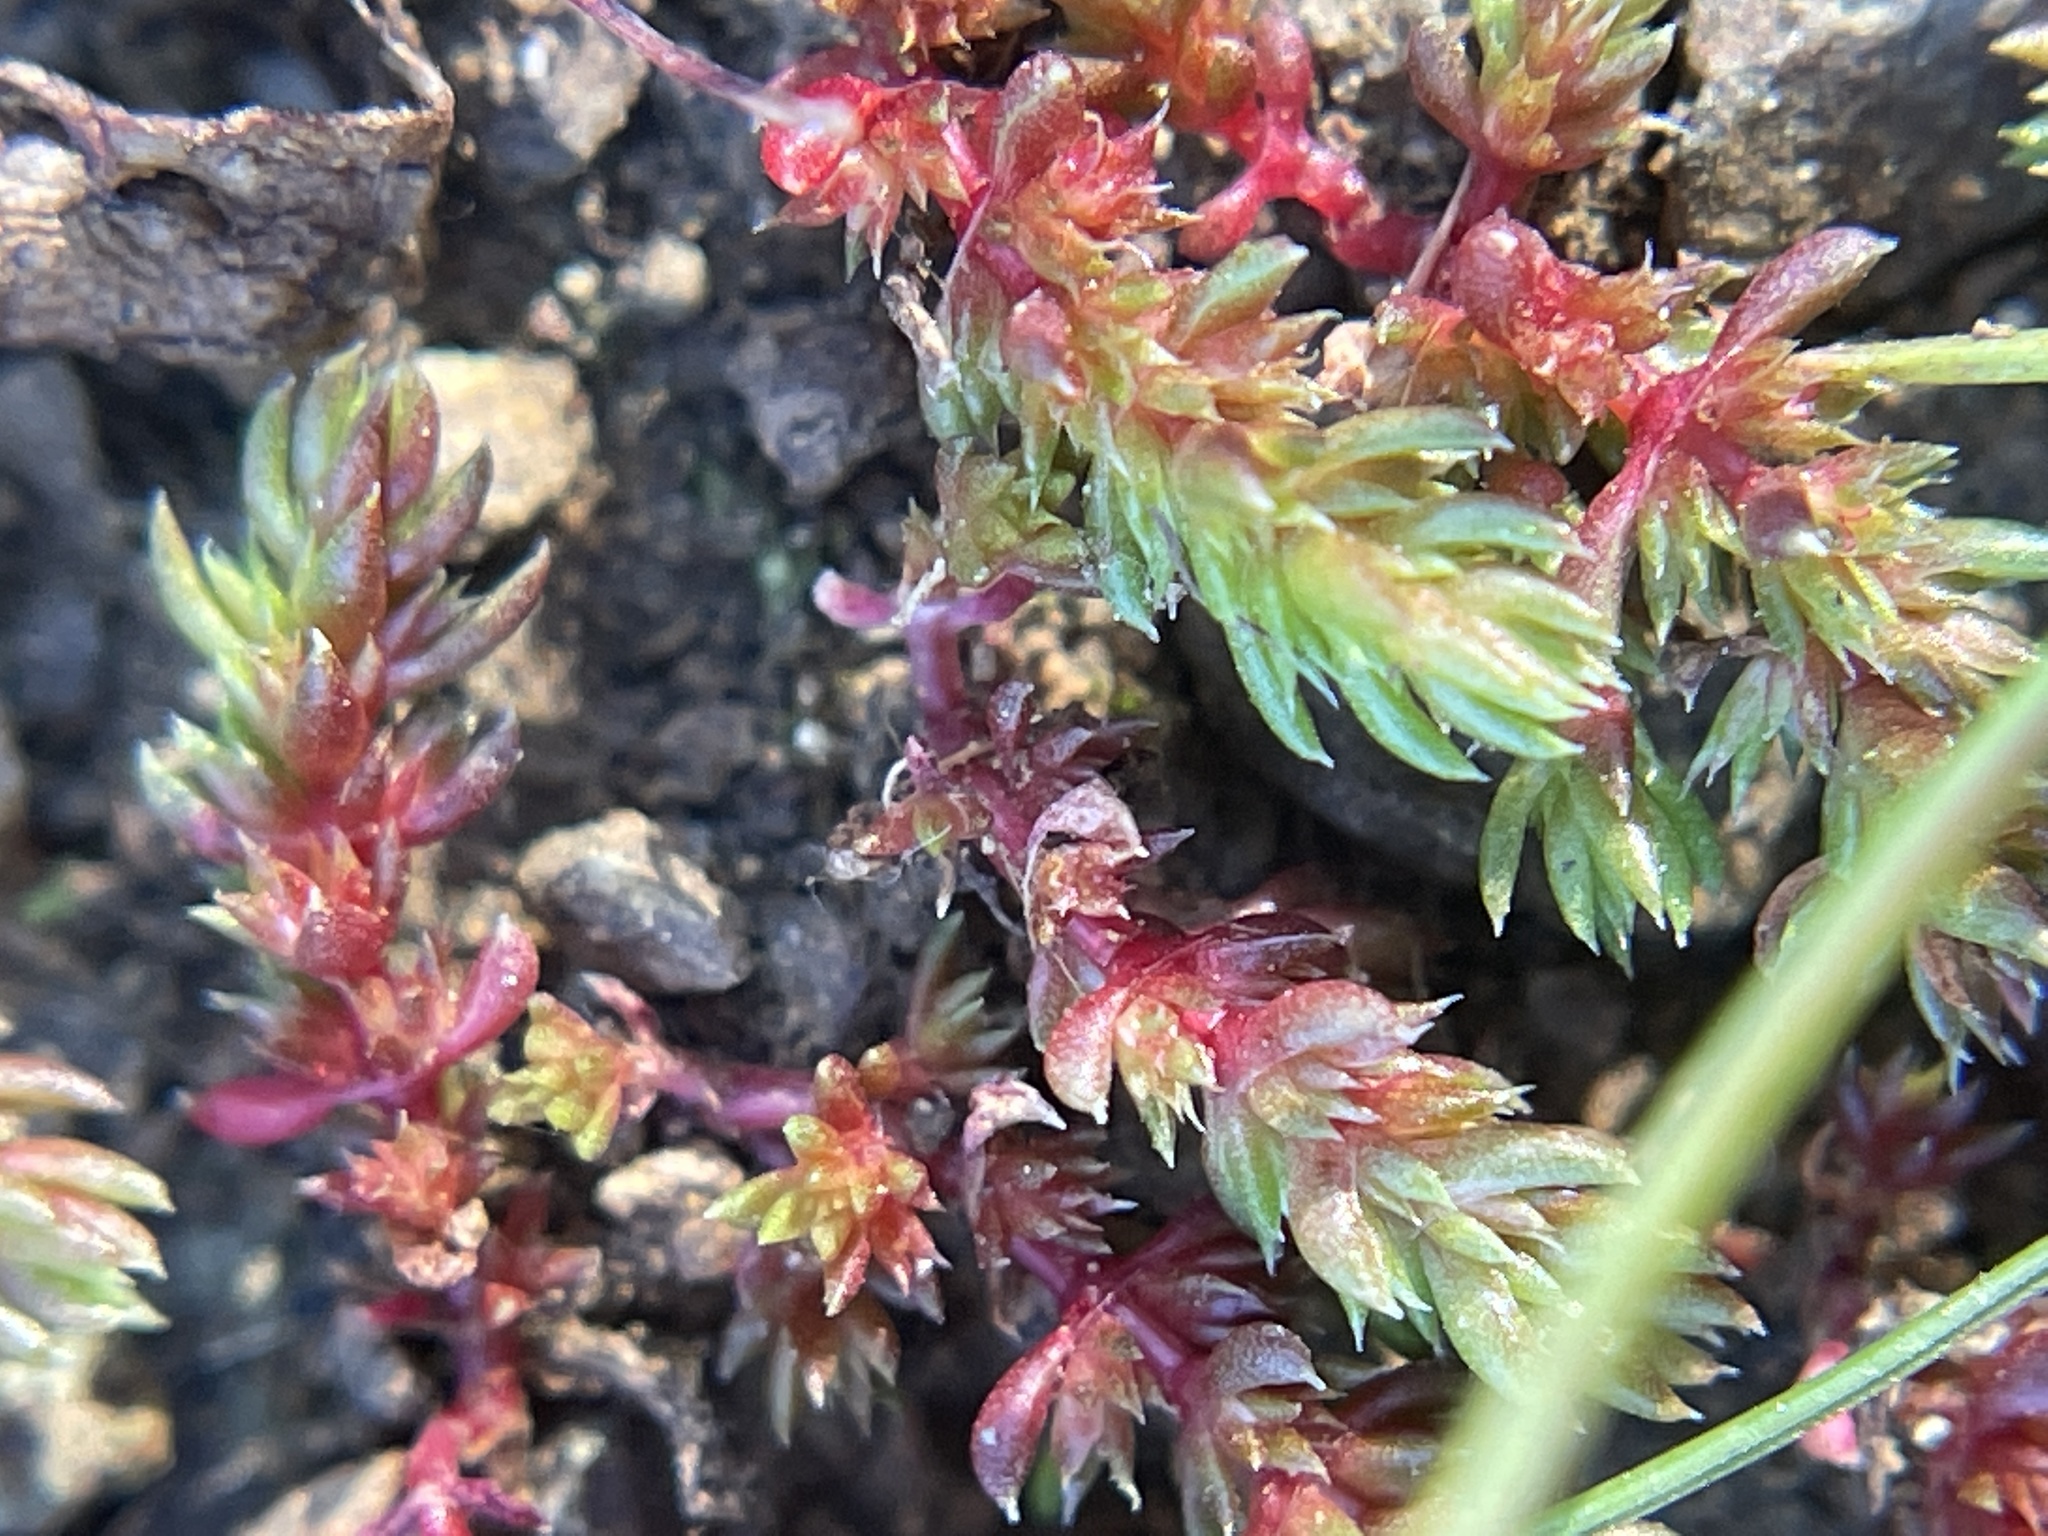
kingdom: Plantae
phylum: Tracheophyta
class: Magnoliopsida
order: Saxifragales
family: Crassulaceae
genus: Crassula
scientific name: Crassula tillaea
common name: Mossy stonecrop
